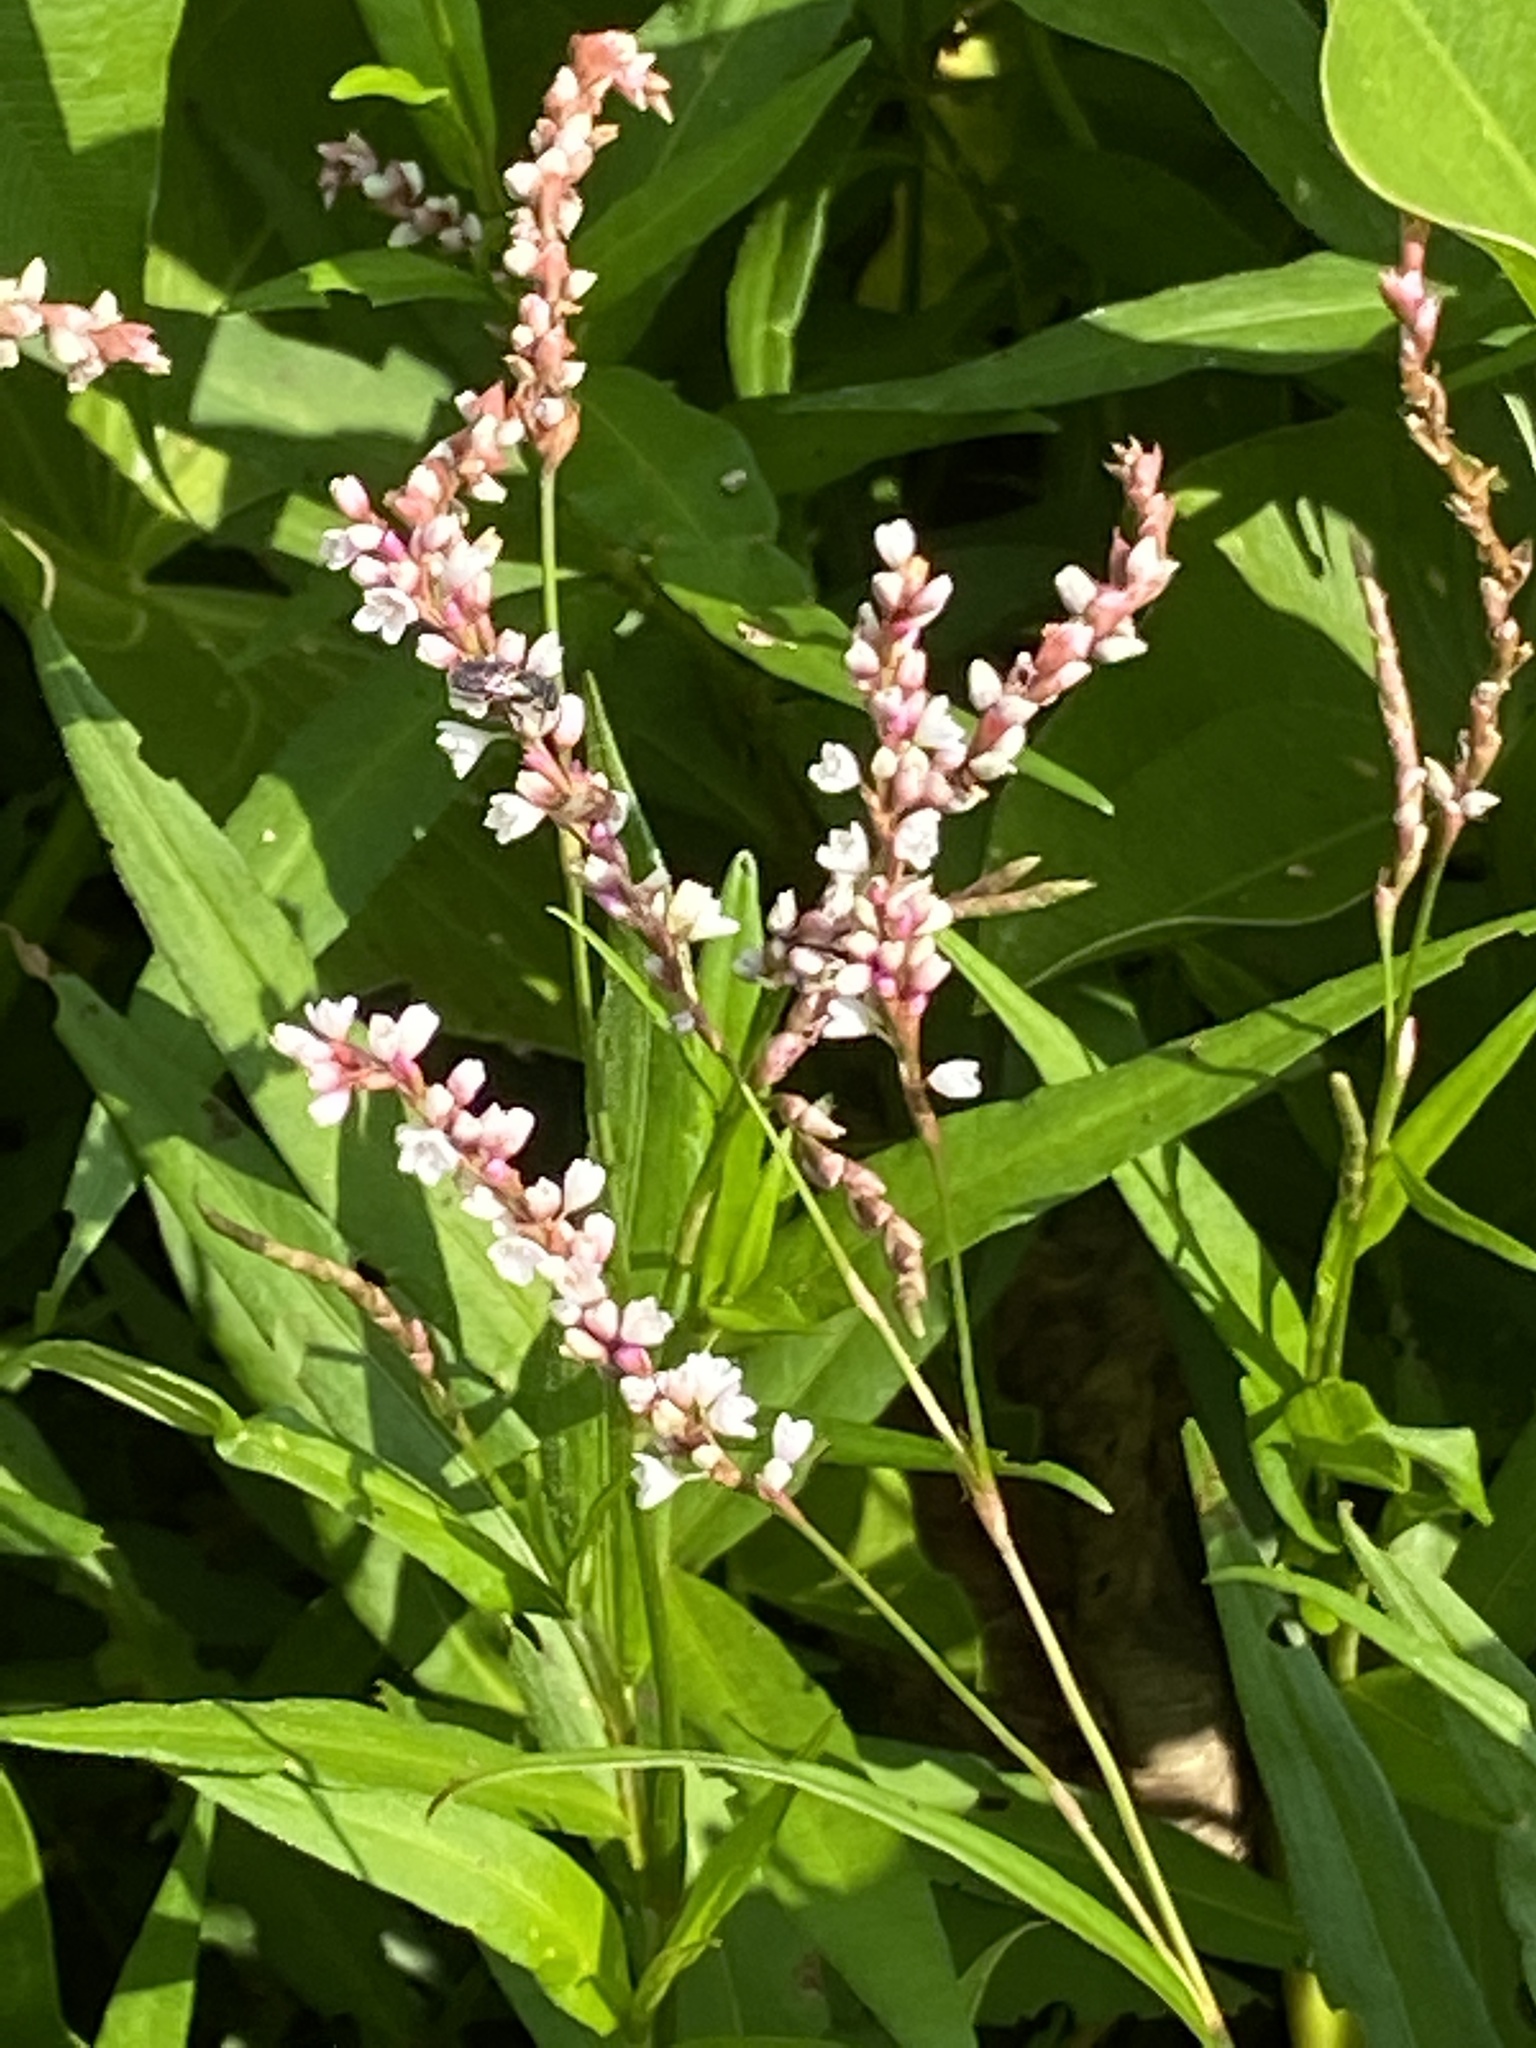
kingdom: Plantae
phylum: Tracheophyta
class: Magnoliopsida
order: Caryophyllales
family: Polygonaceae
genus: Persicaria
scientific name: Persicaria hydropiperoides
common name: Swamp smartweed
